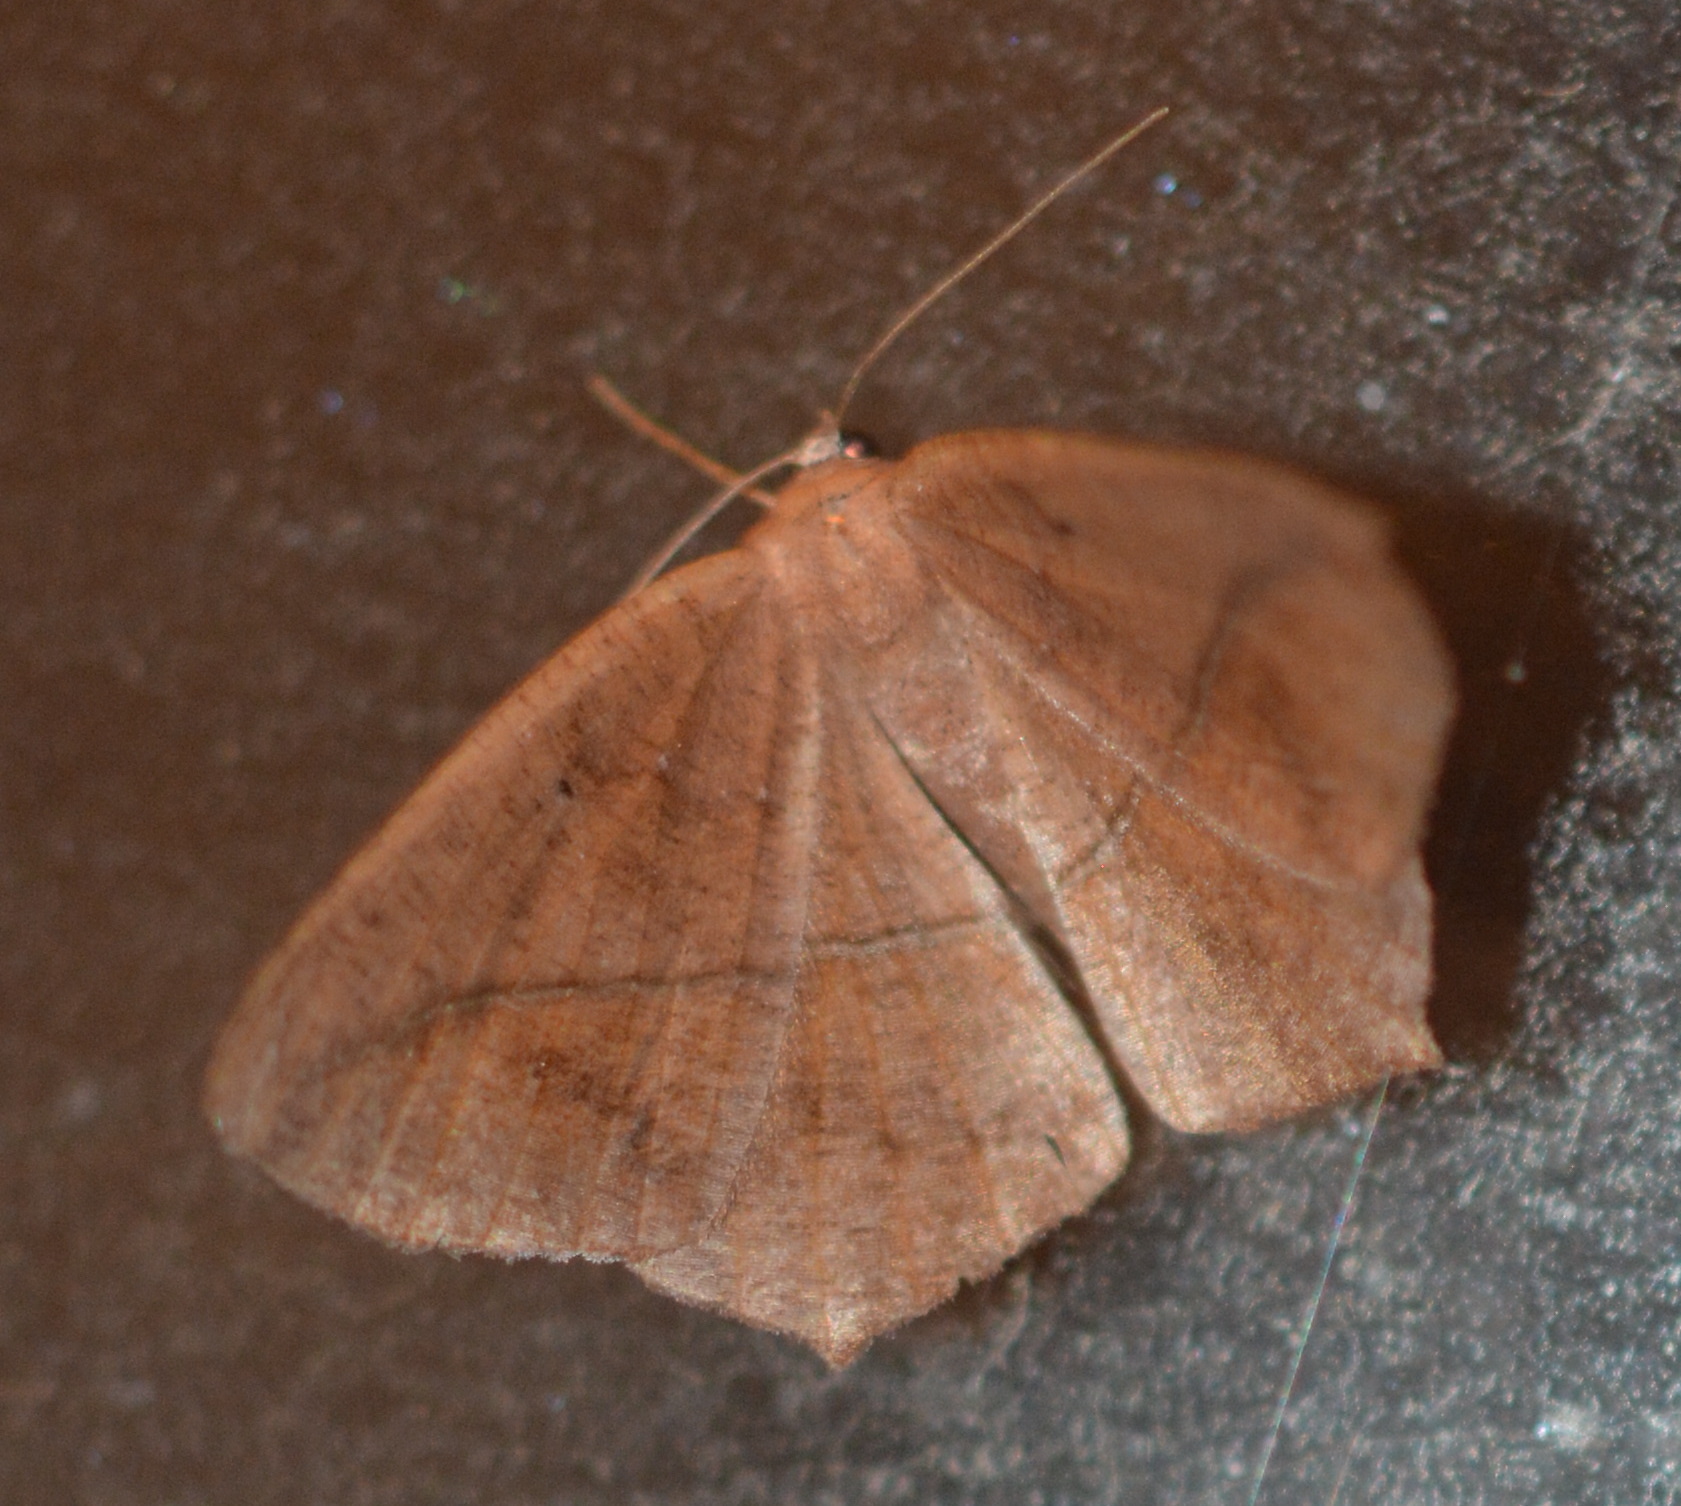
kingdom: Animalia
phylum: Arthropoda
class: Insecta
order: Lepidoptera
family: Geometridae
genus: Prochoerodes
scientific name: Prochoerodes lineola
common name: Large maple spanworm
